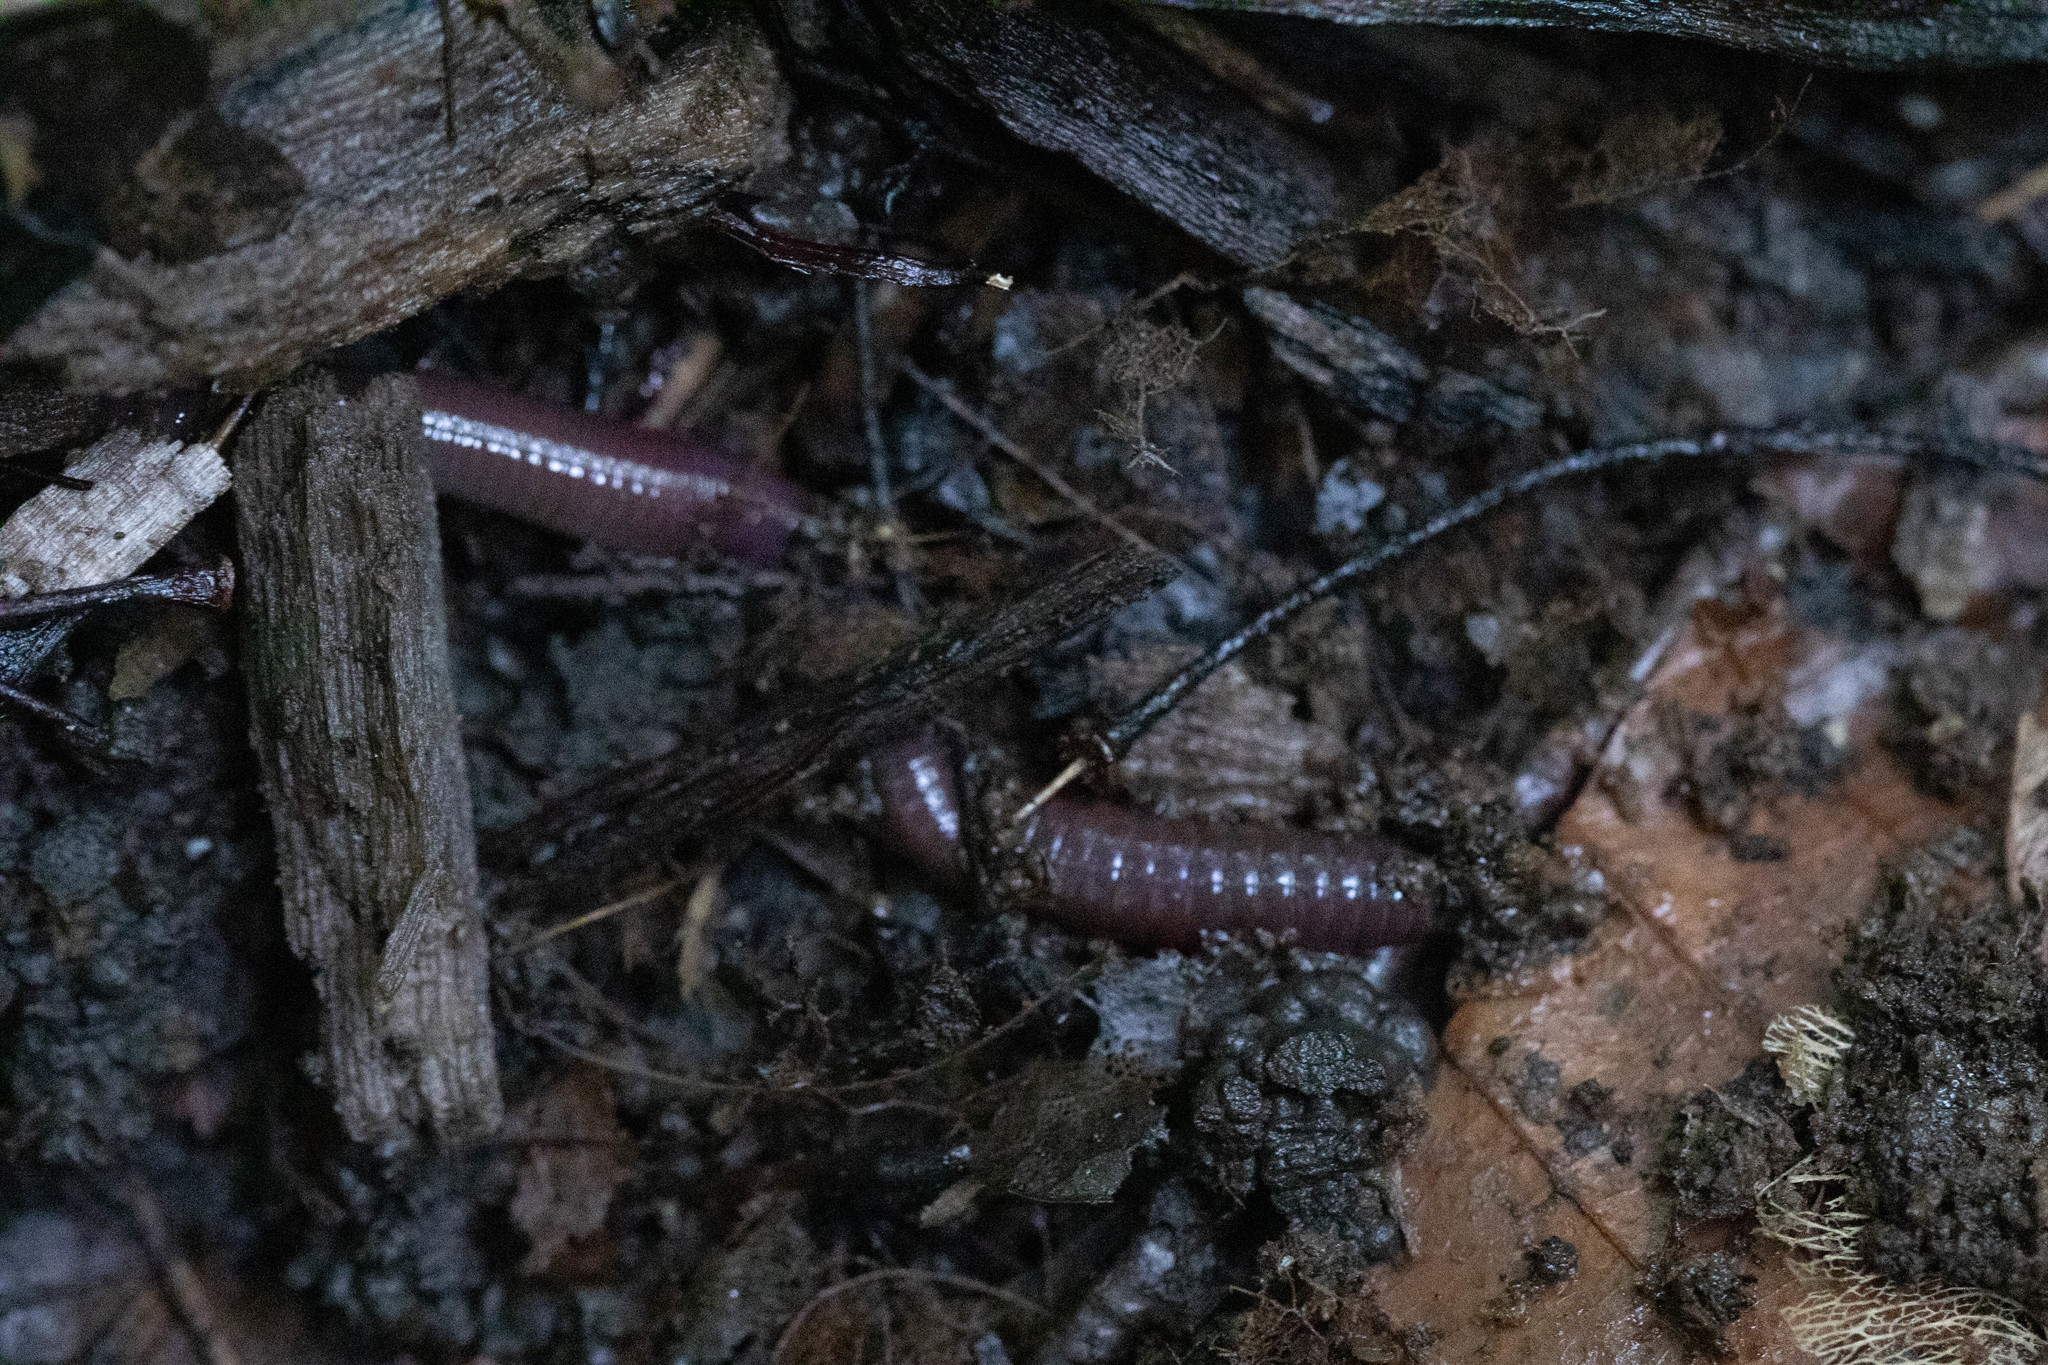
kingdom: Animalia
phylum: Annelida
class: Clitellata
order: Crassiclitellata
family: Lumbricidae
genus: Lumbricus
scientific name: Lumbricus terrestris
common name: Common earthworm
